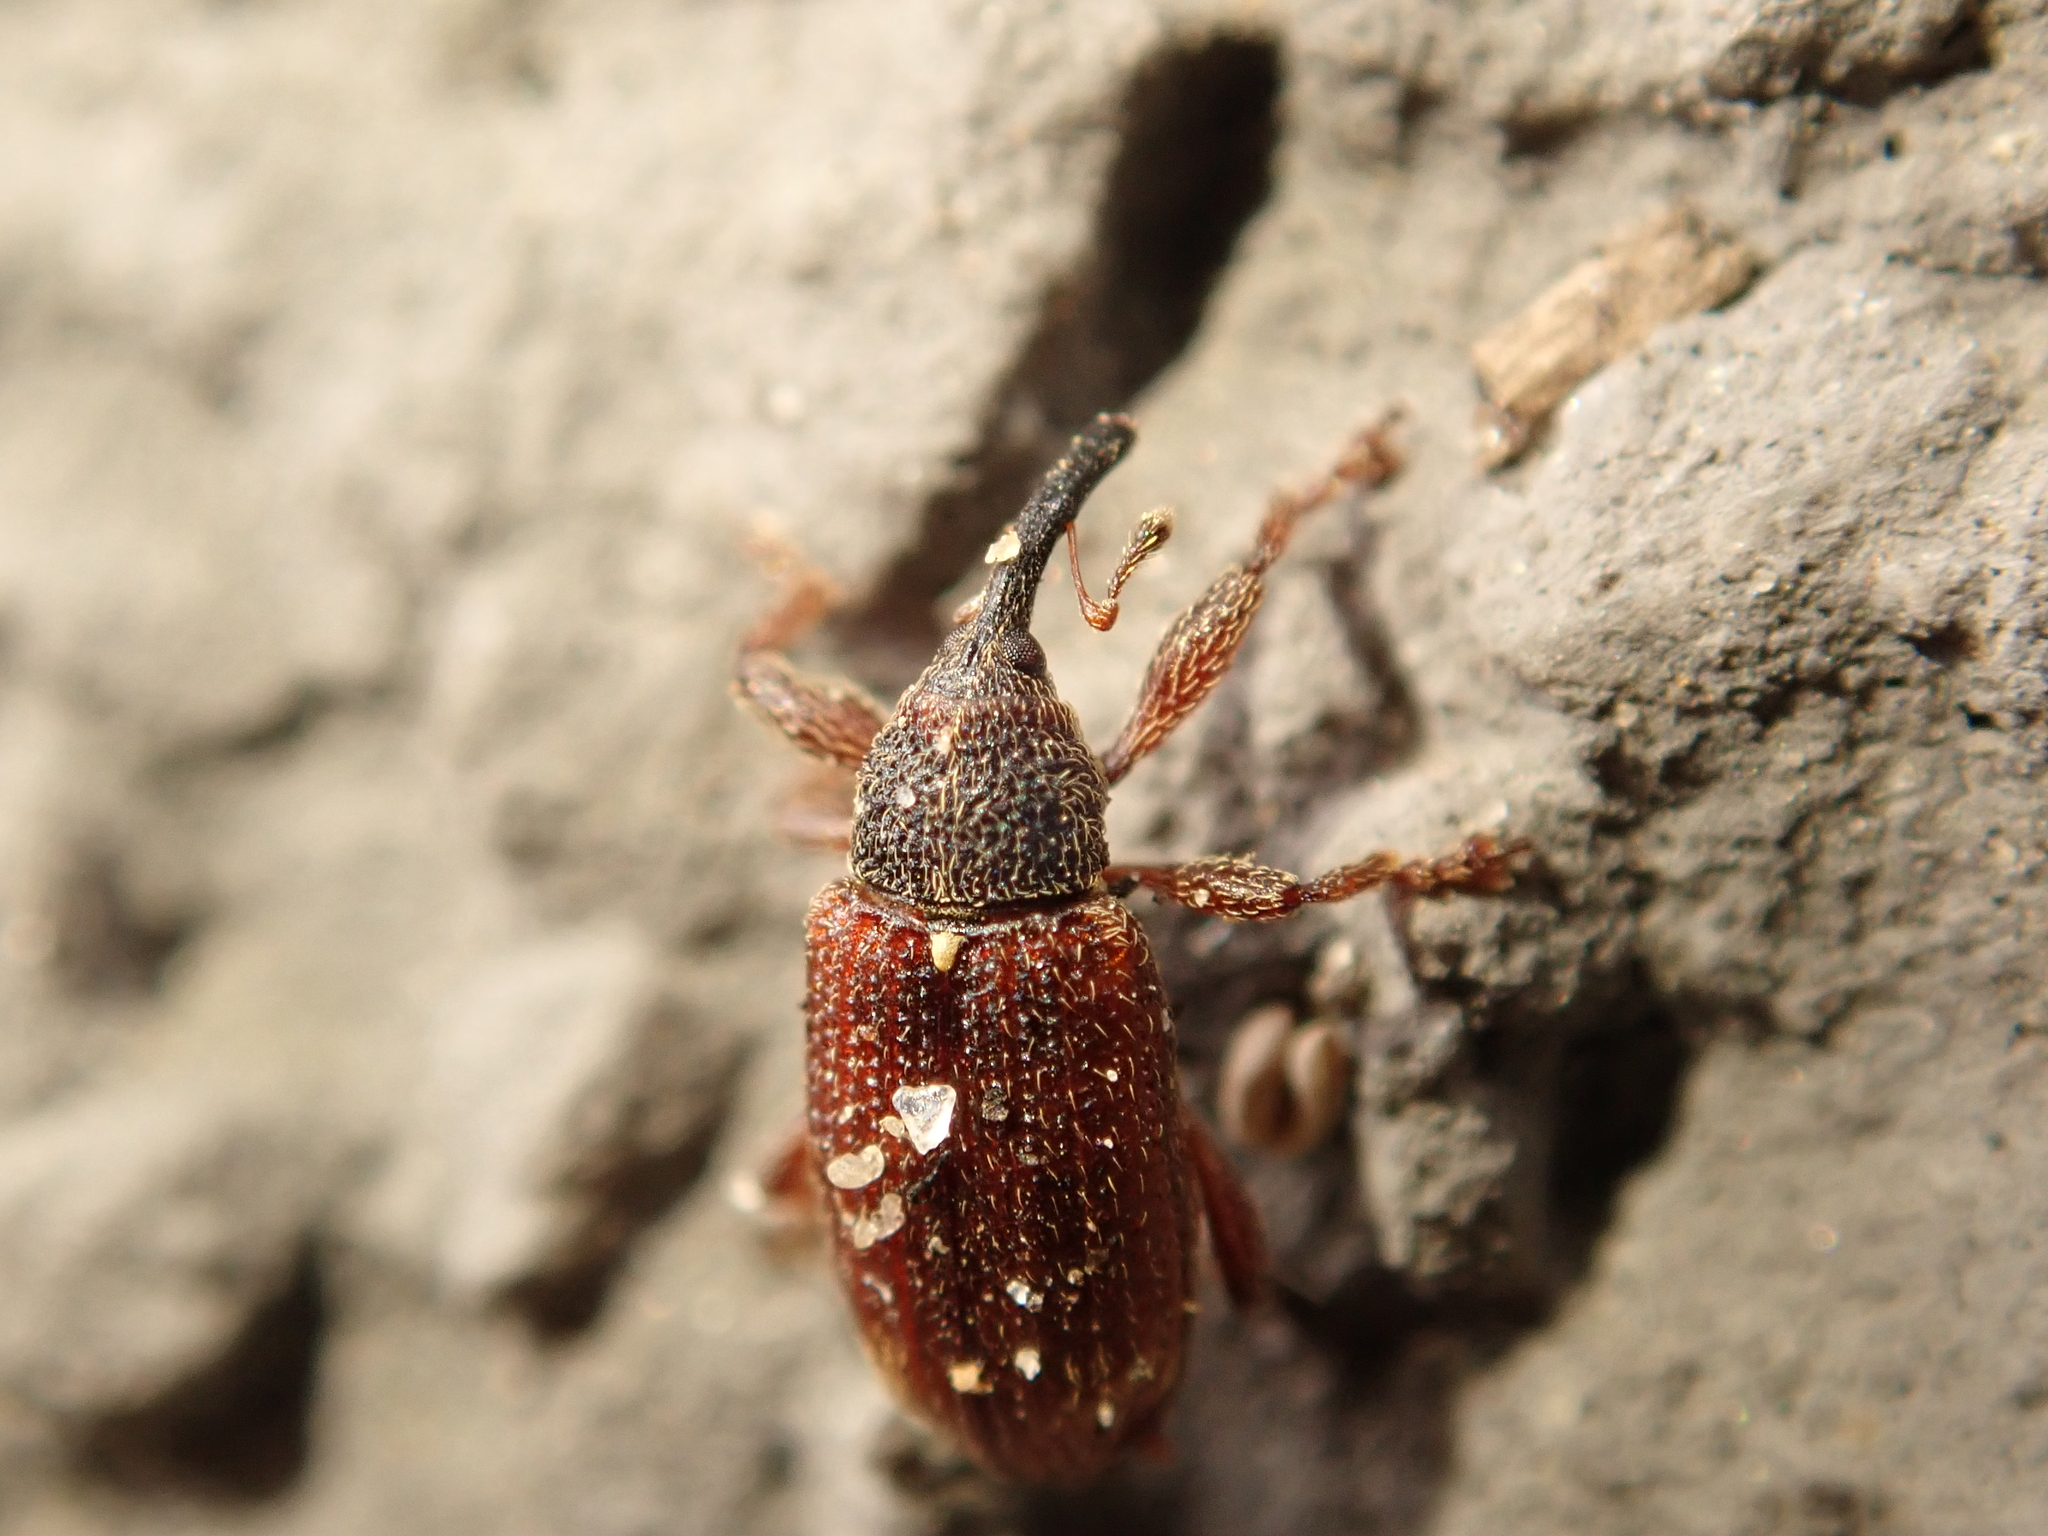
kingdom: Animalia
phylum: Arthropoda
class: Insecta
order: Coleoptera
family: Curculionidae
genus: Bradybatus
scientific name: Bradybatus kellneri
